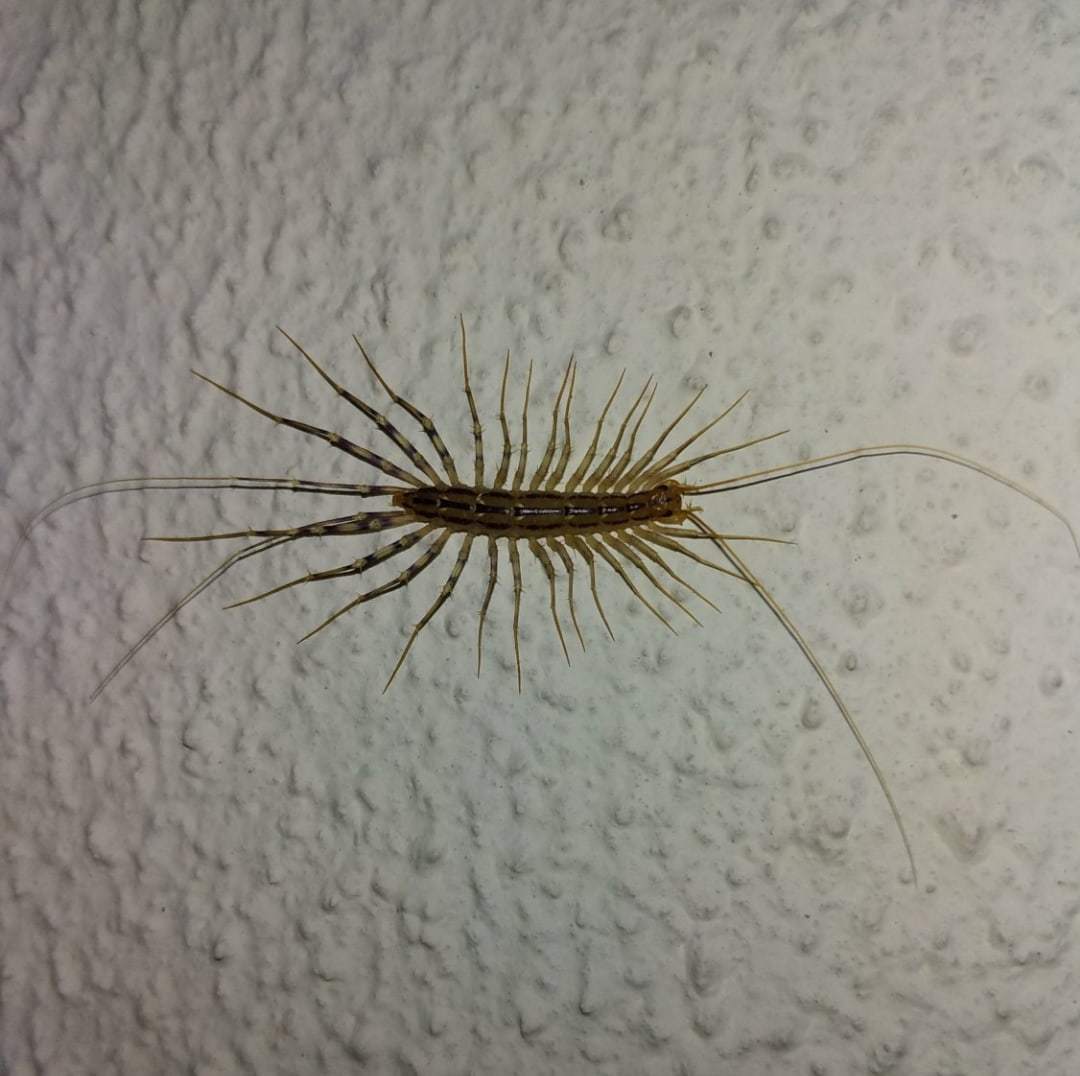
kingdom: Animalia
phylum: Arthropoda
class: Chilopoda
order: Scutigeromorpha
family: Scutigeridae
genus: Scutigera
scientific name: Scutigera coleoptrata
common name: House centipede
